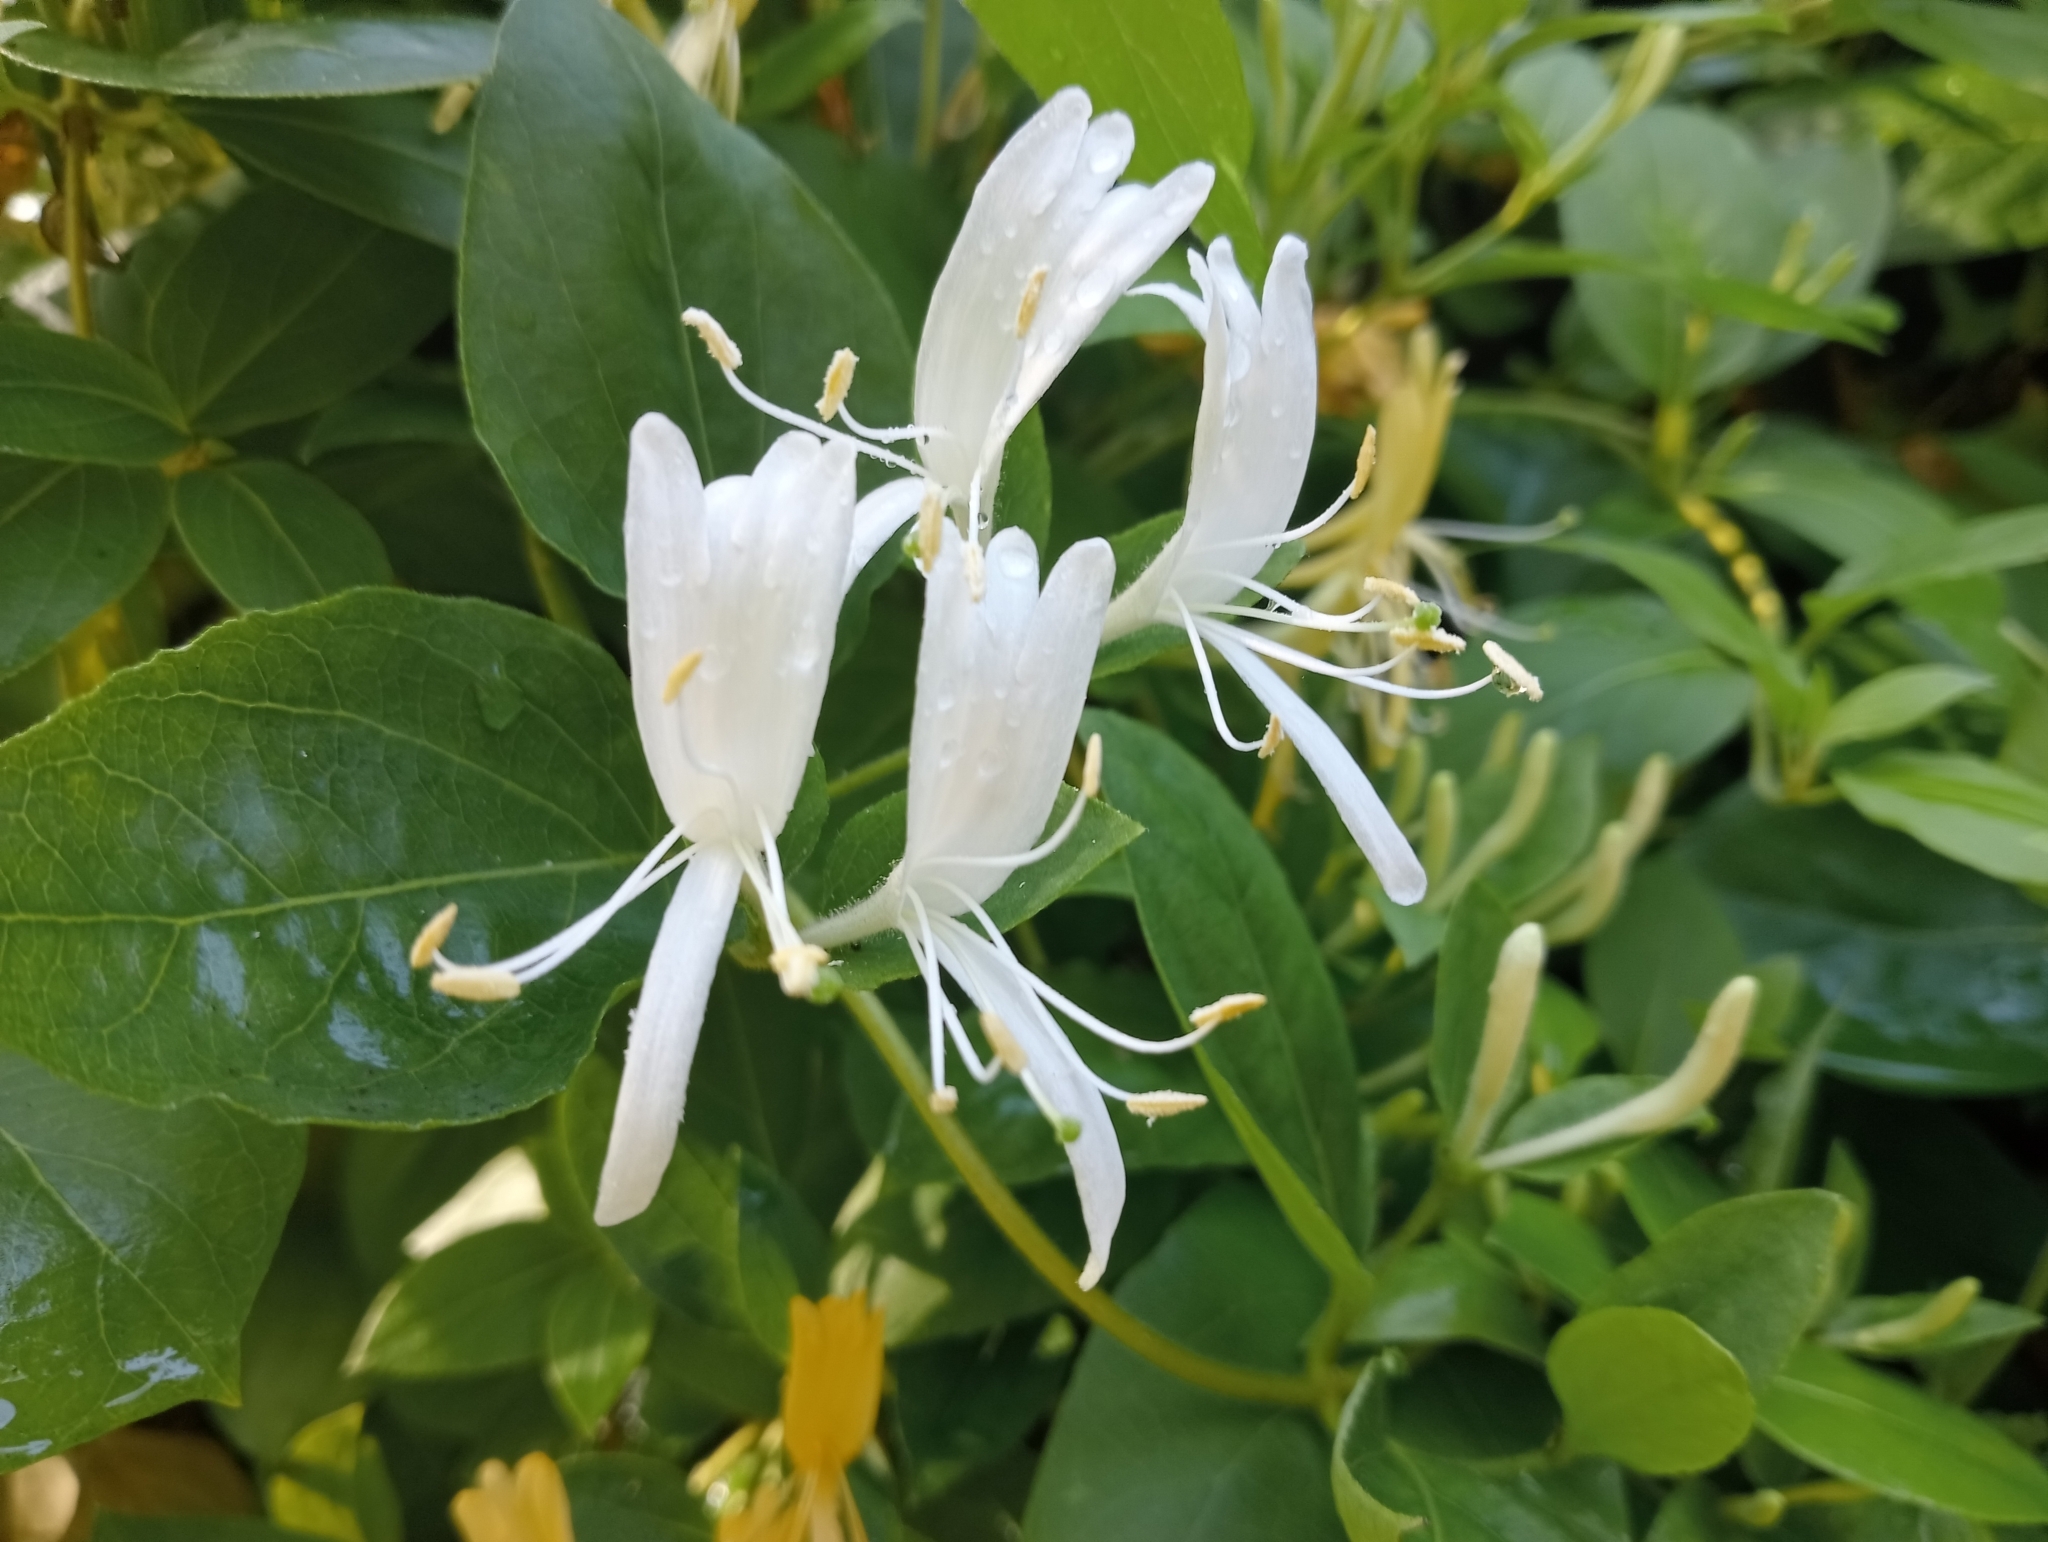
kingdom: Plantae
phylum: Tracheophyta
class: Magnoliopsida
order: Dipsacales
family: Caprifoliaceae
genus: Lonicera
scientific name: Lonicera japonica
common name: Japanese honeysuckle
